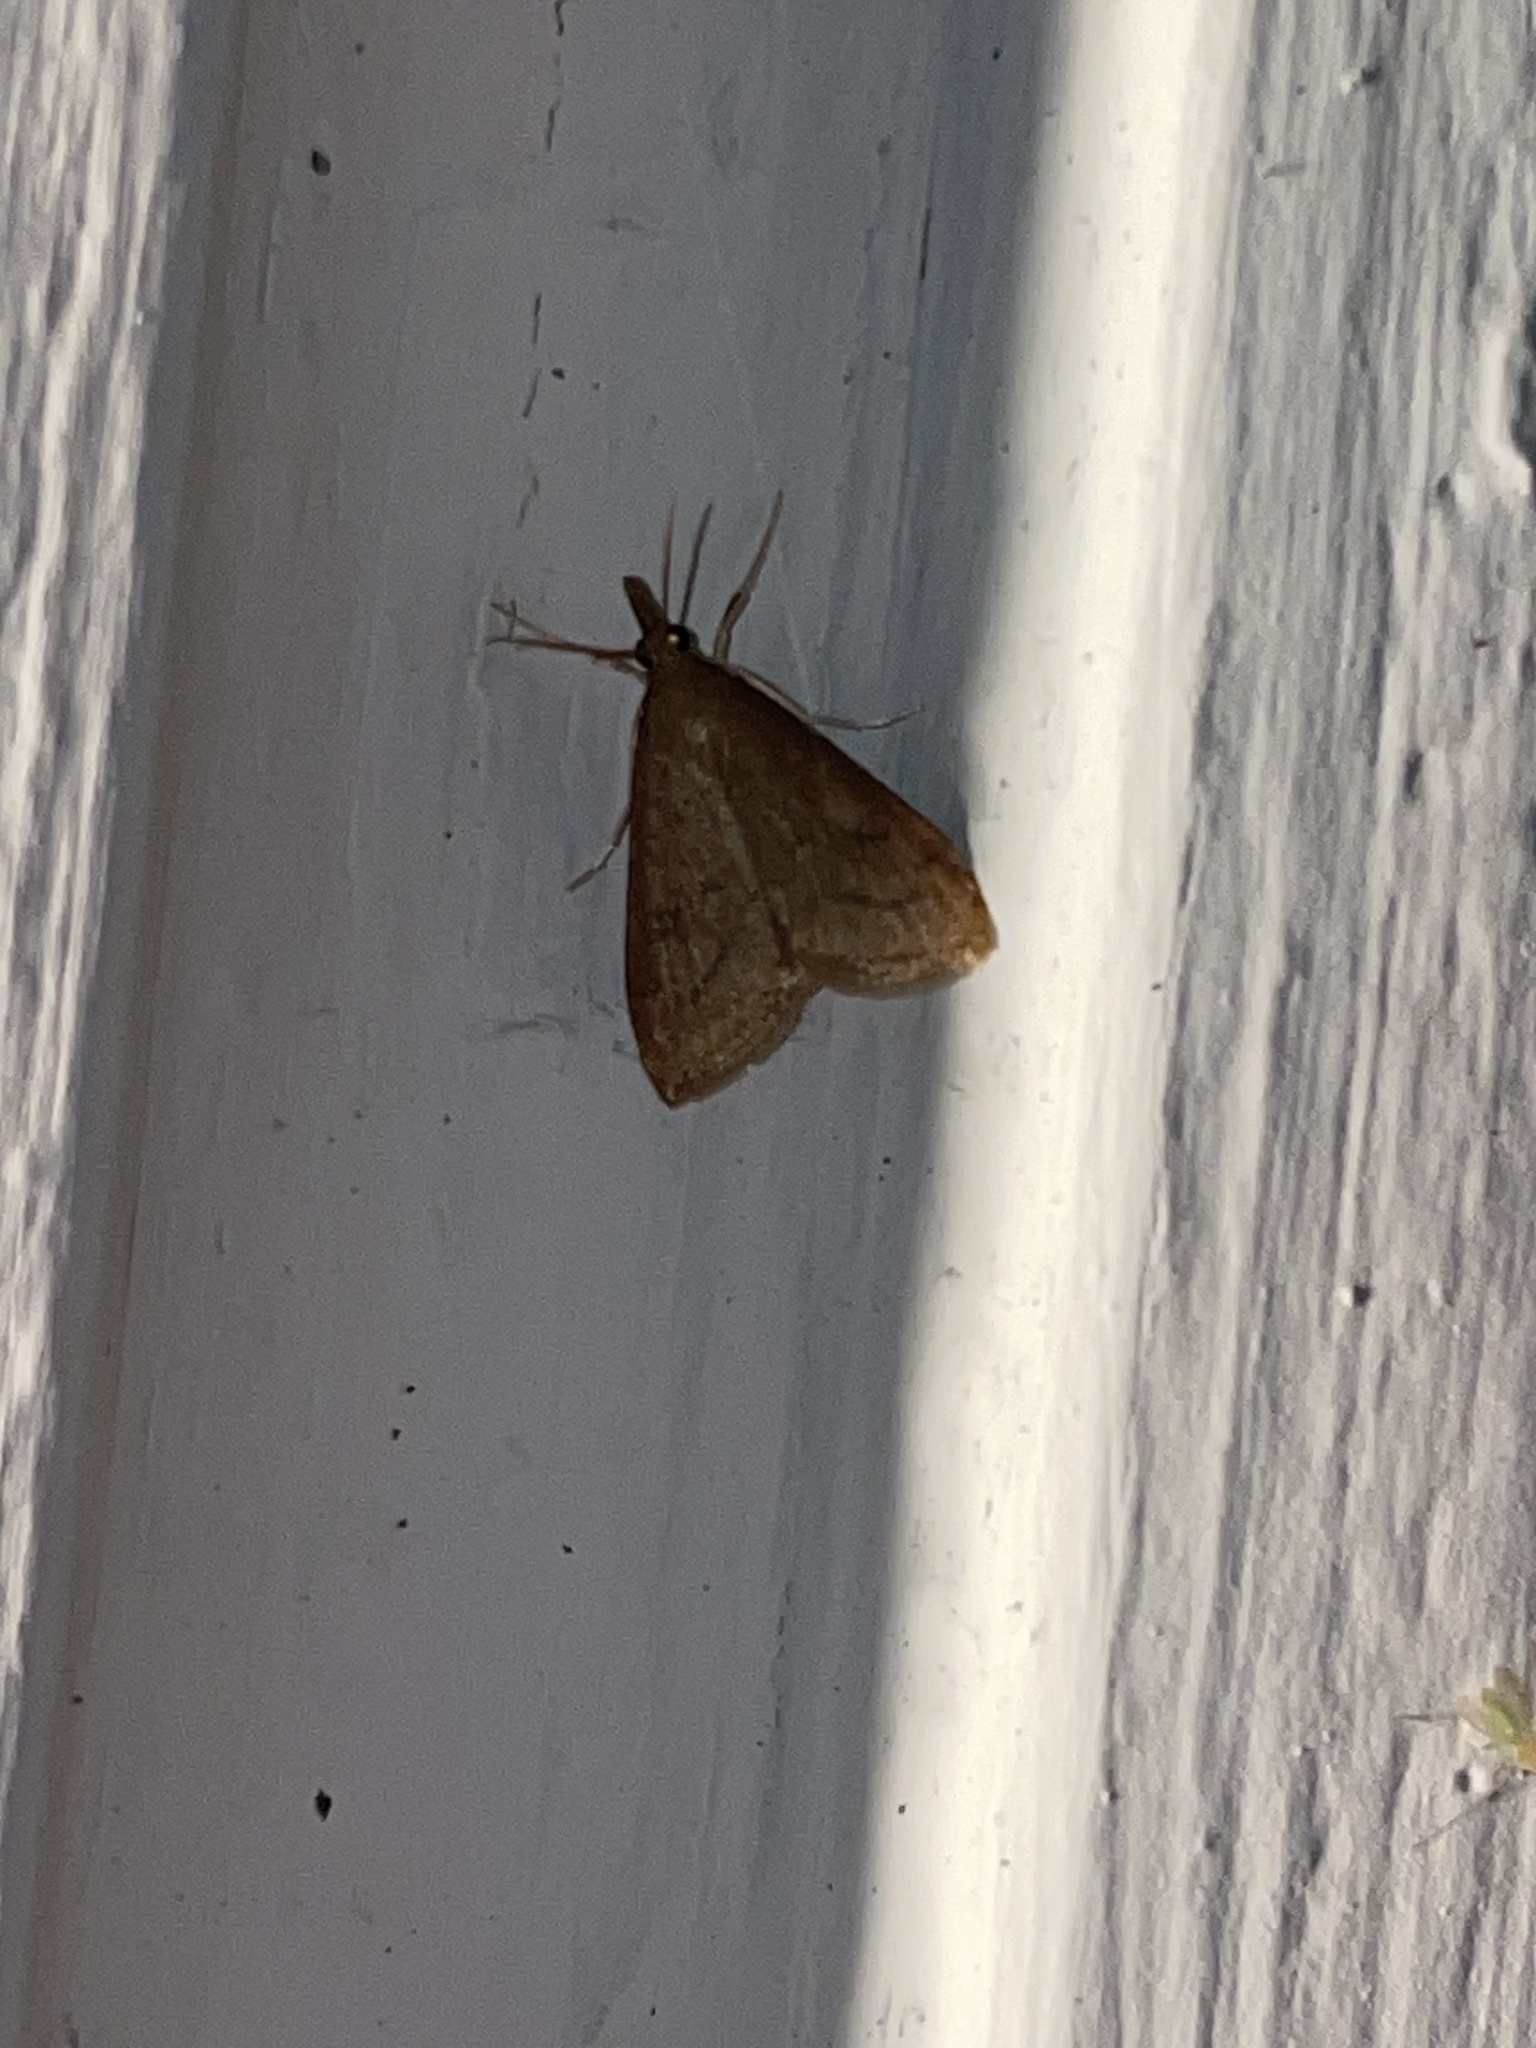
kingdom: Animalia
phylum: Arthropoda
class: Insecta
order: Lepidoptera
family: Crambidae
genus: Udea
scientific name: Udea rubigalis
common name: Celery leaftier moth
